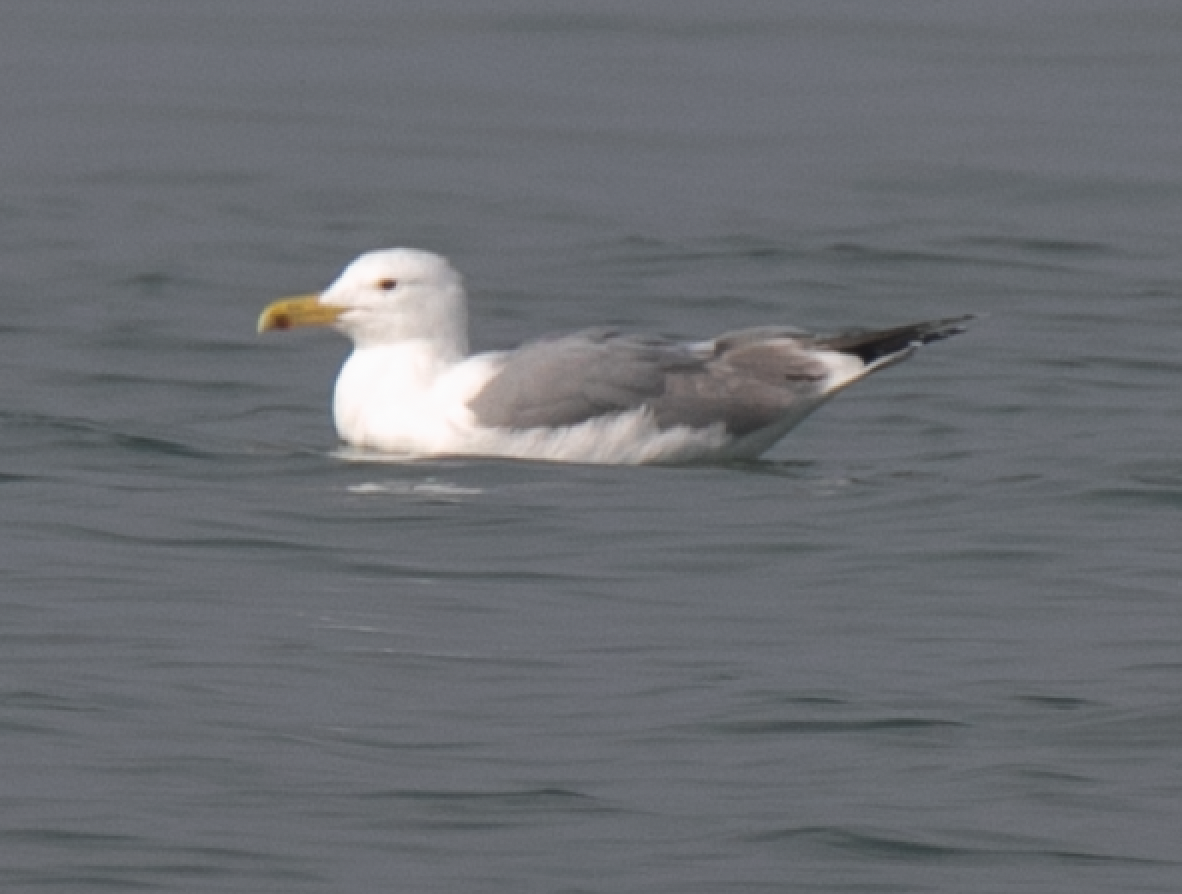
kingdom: Animalia
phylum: Chordata
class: Aves
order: Charadriiformes
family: Laridae
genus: Larus
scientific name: Larus michahellis
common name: Yellow-legged gull
